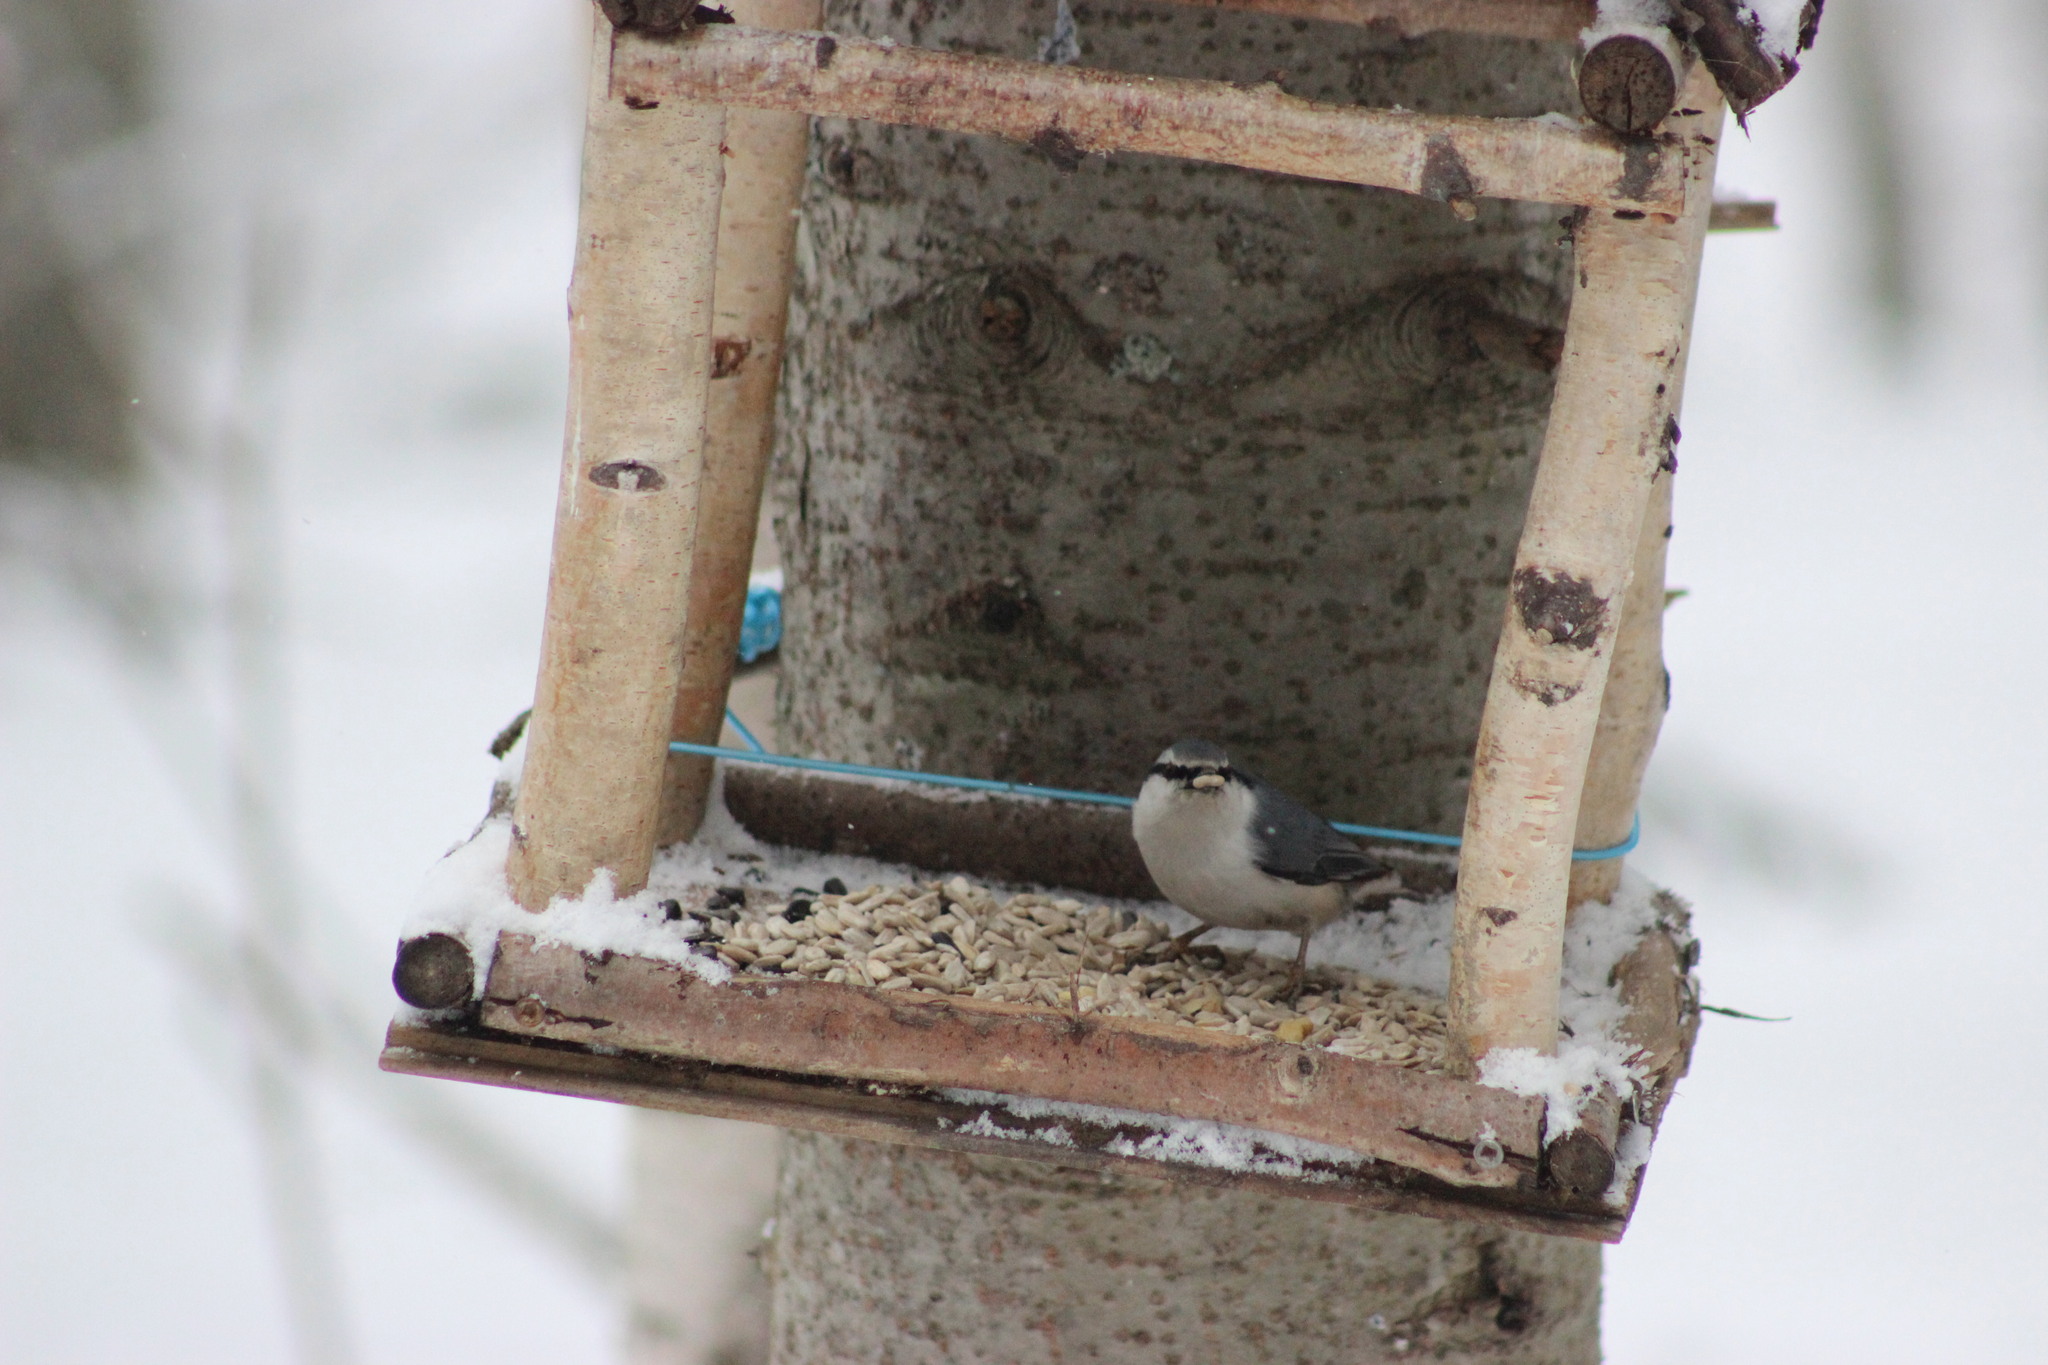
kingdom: Animalia
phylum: Chordata
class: Aves
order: Passeriformes
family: Sittidae
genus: Sitta
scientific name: Sitta europaea
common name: Eurasian nuthatch
